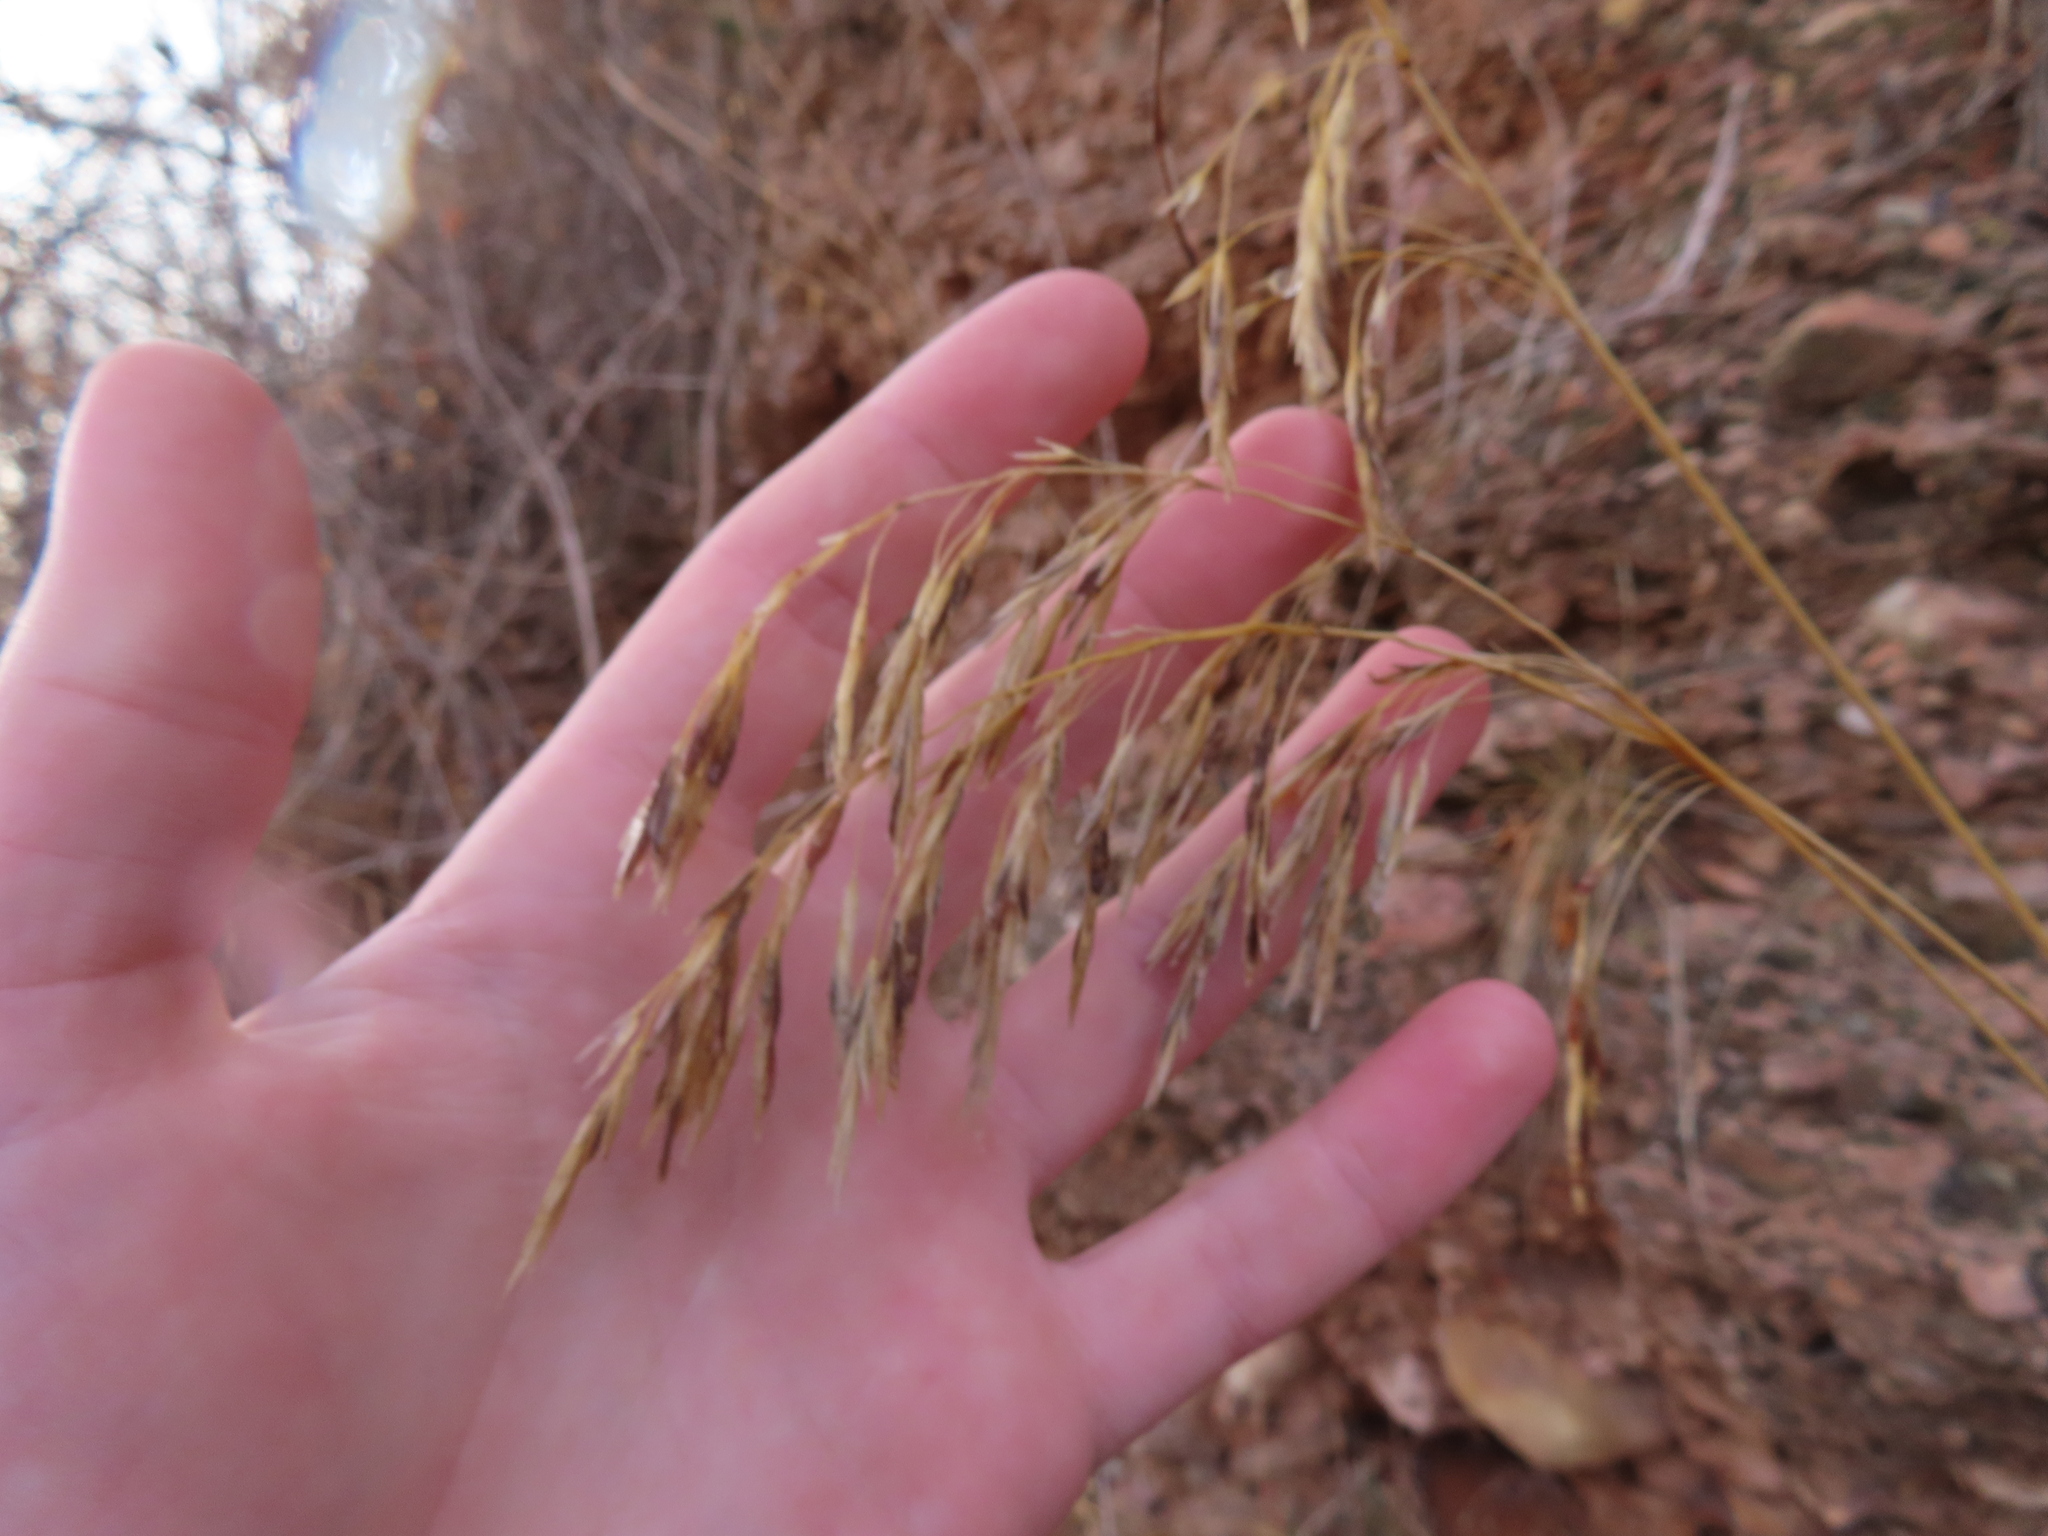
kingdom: Plantae
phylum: Tracheophyta
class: Liliopsida
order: Poales
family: Poaceae
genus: Bromus
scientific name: Bromus inermis
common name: Smooth brome
